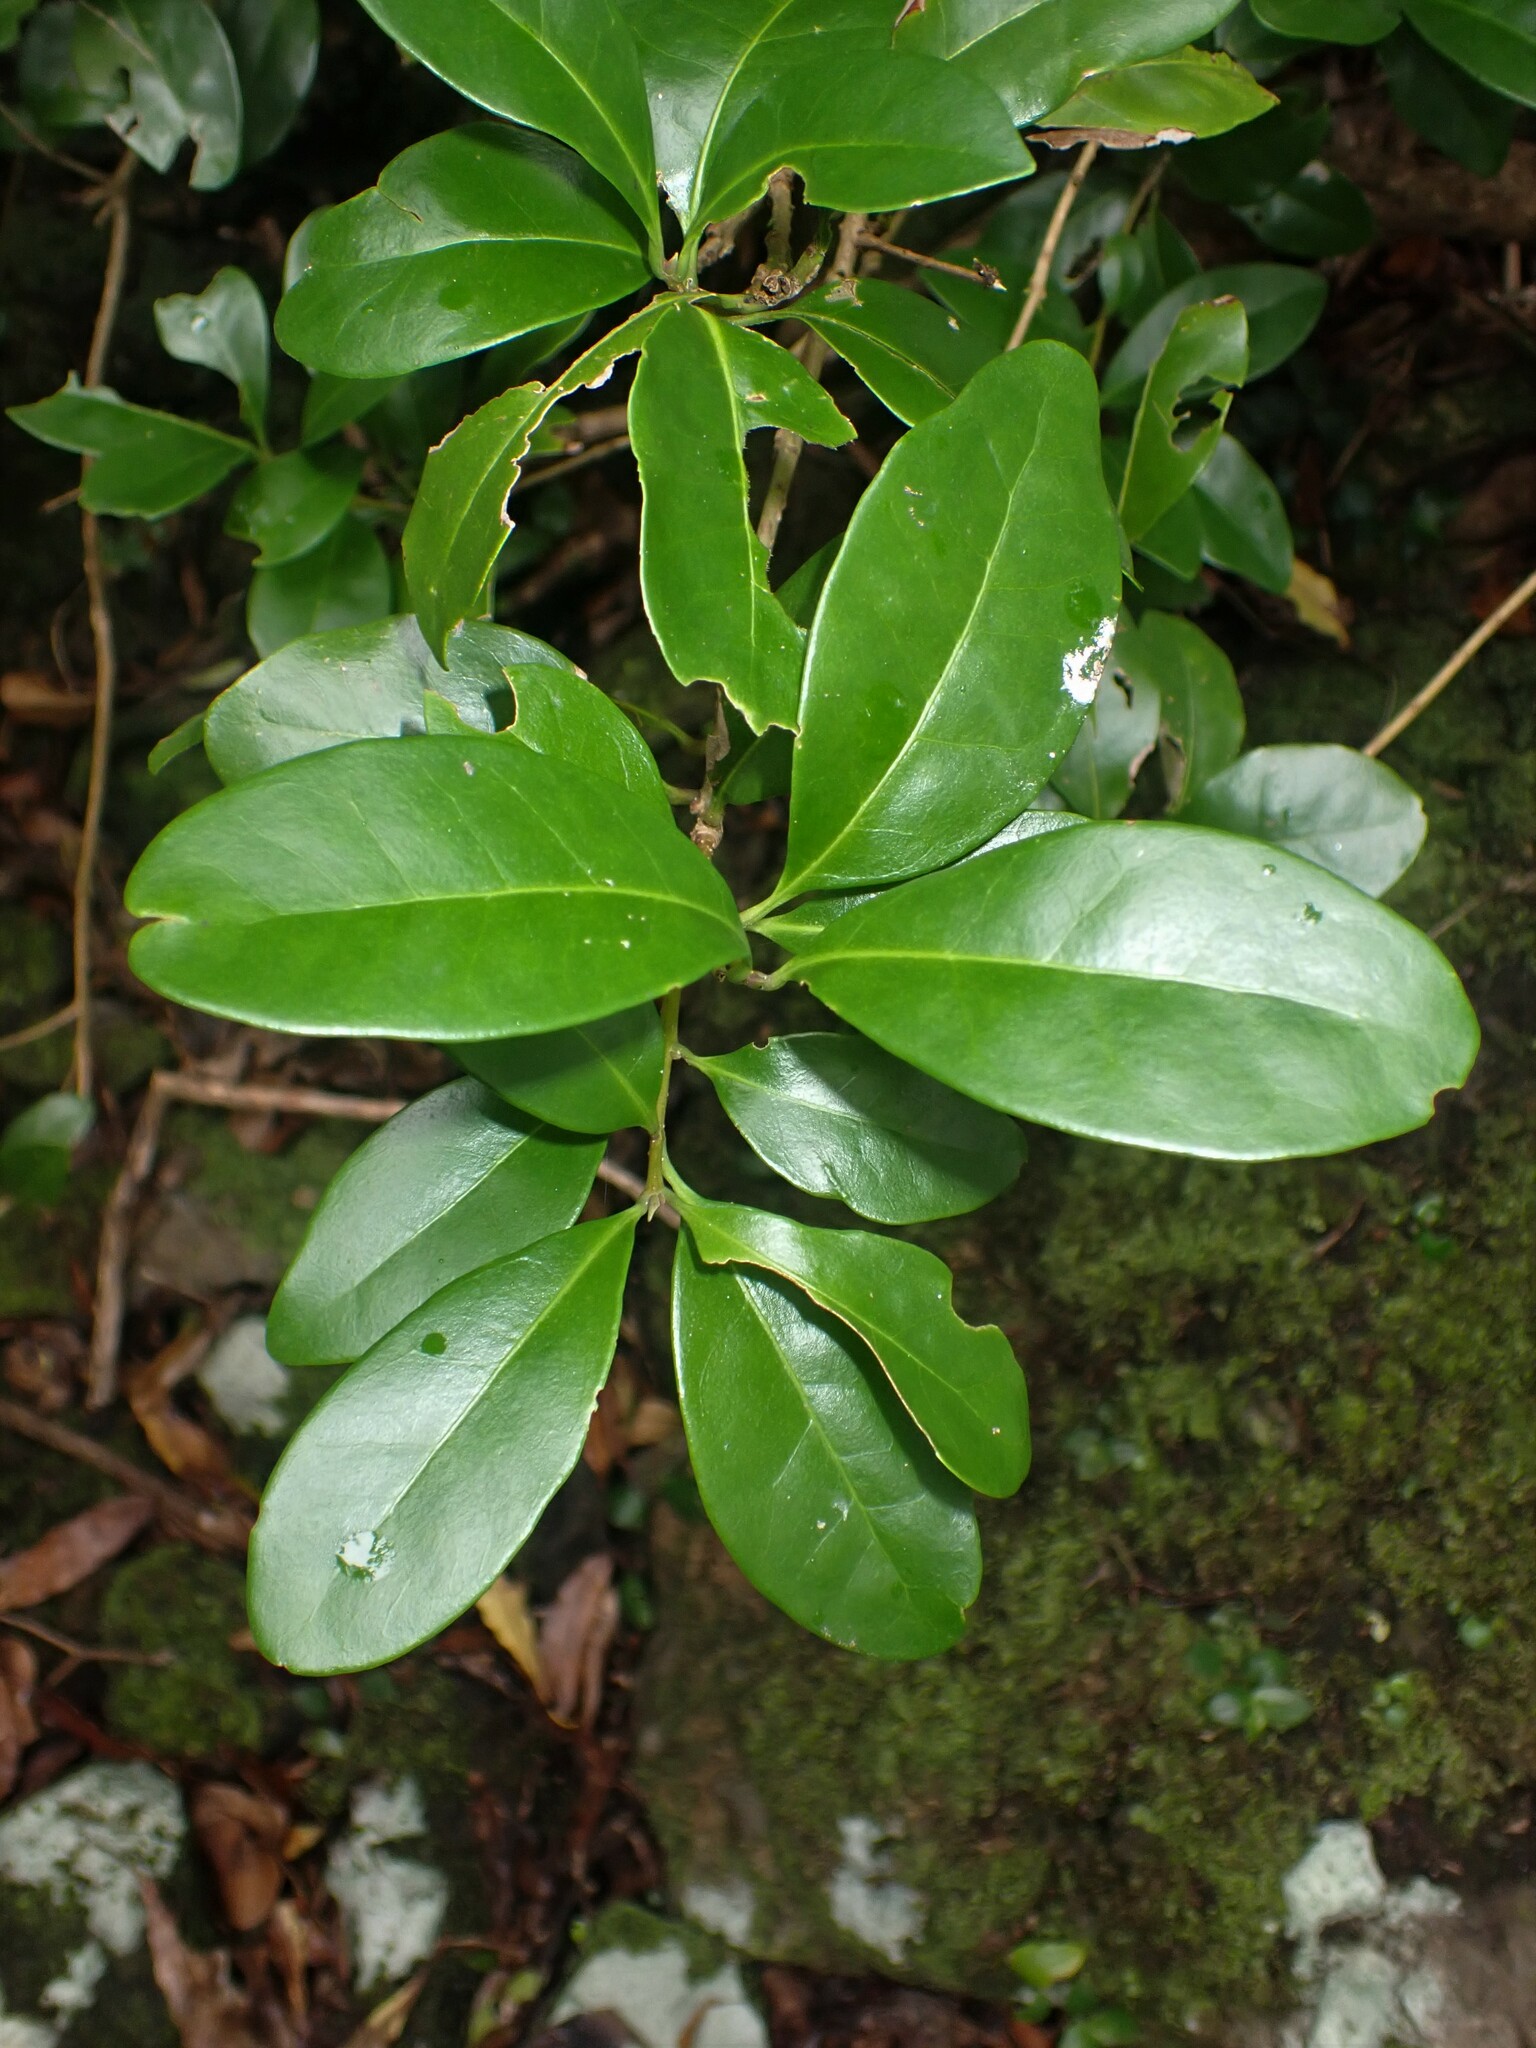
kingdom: Plantae
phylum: Tracheophyta
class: Magnoliopsida
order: Lamiales
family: Oleaceae
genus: Picconia
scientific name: Picconia azorica
